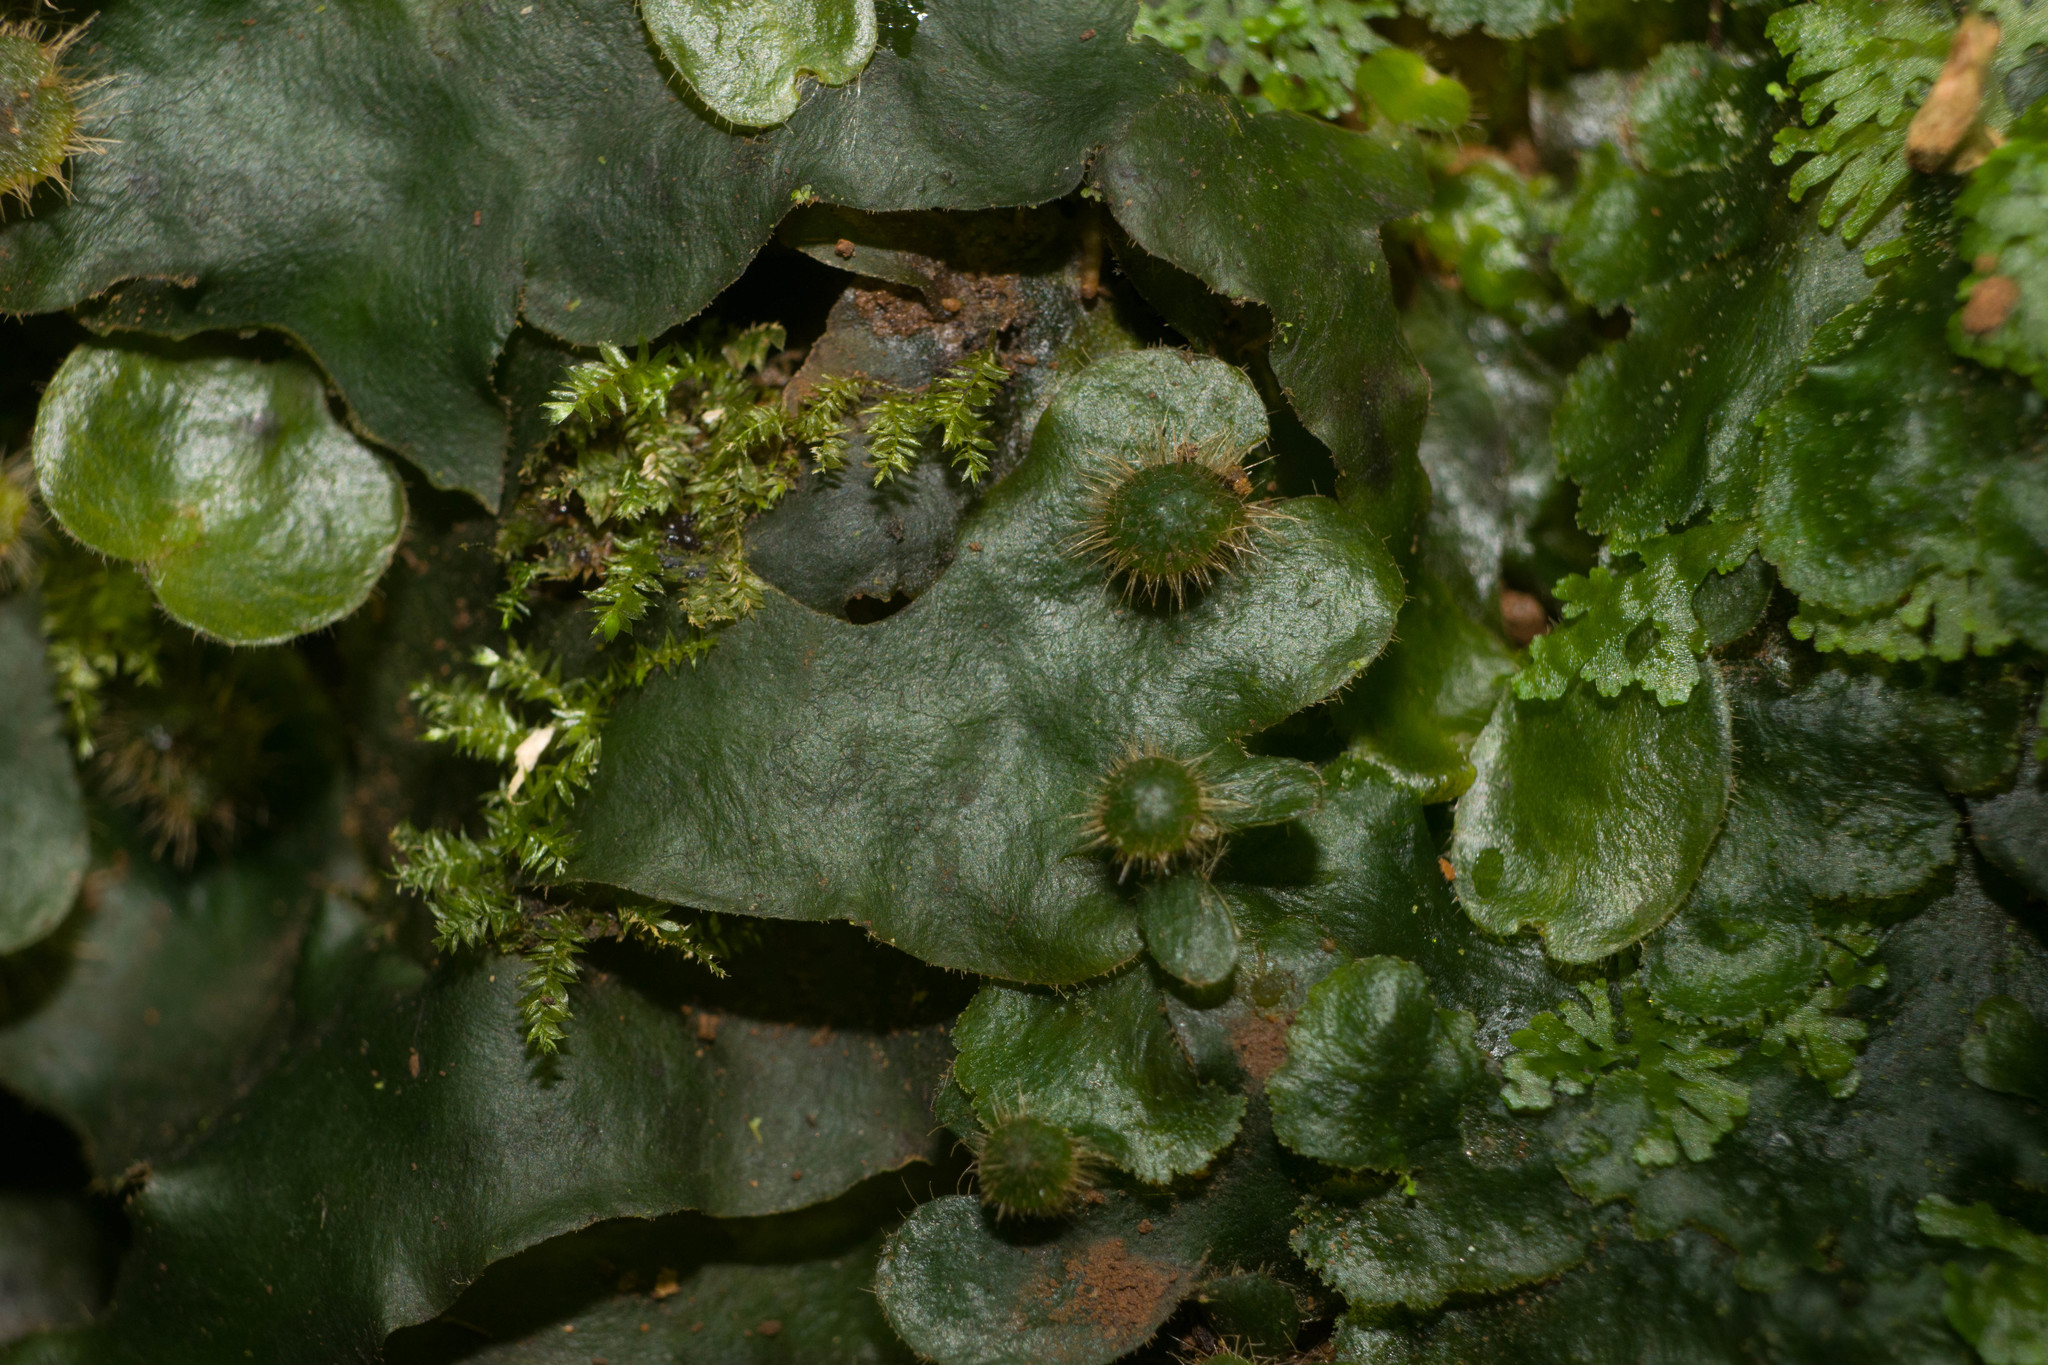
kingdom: Plantae
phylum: Marchantiophyta
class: Marchantiopsida
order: Marchantiales
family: Dumortieraceae
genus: Dumortiera
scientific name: Dumortiera hirsuta
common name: Dumortier's liverwort
